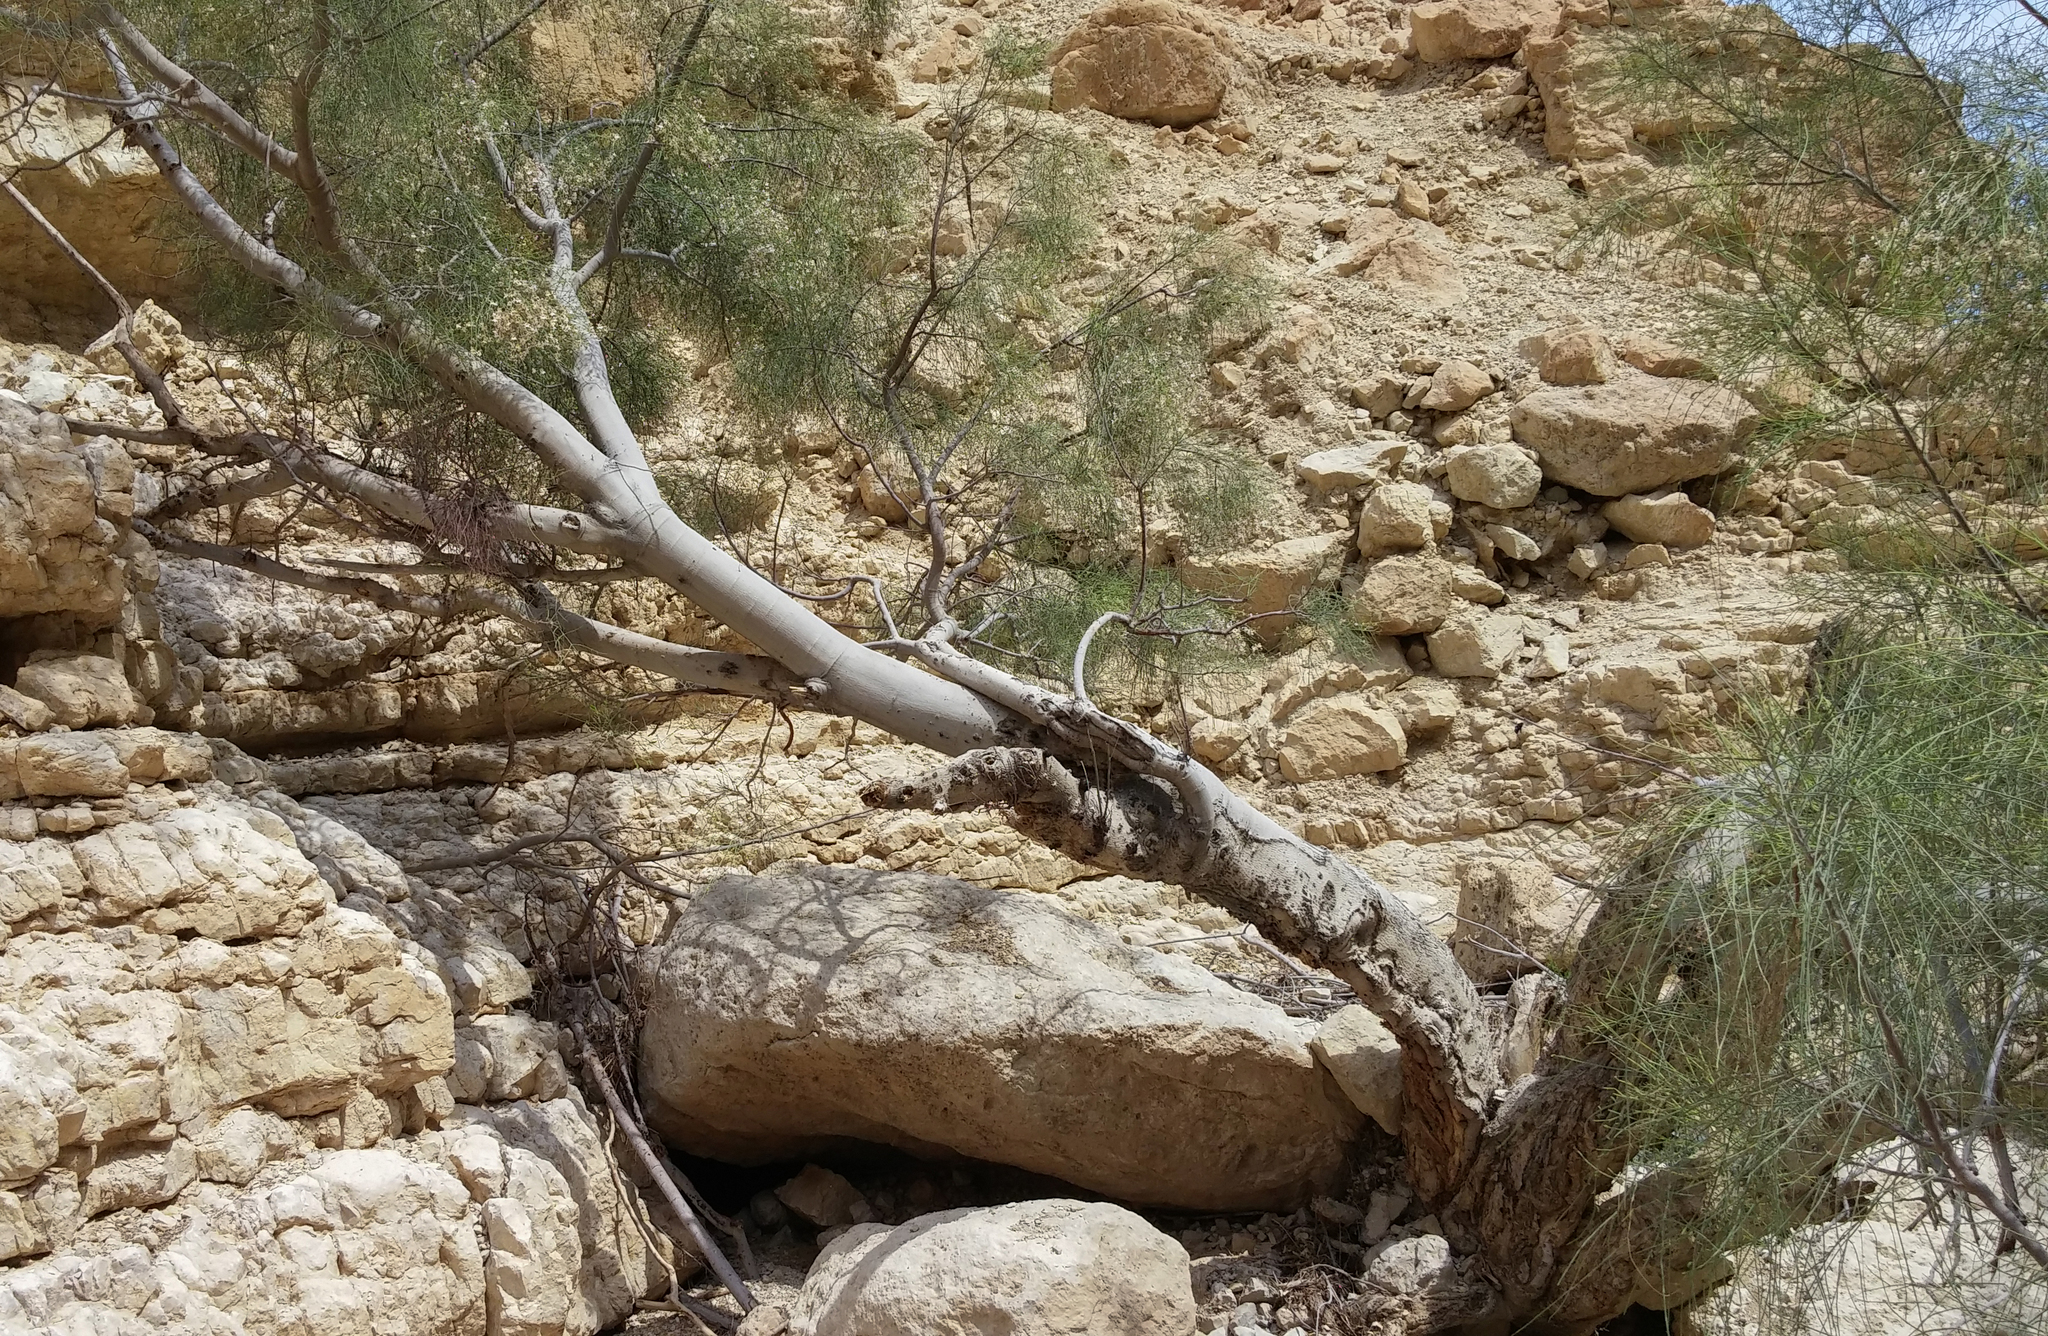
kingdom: Plantae
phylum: Tracheophyta
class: Magnoliopsida
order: Brassicales
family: Moringaceae
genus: Moringa
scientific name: Moringa peregrina
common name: Wild drumstick tree
